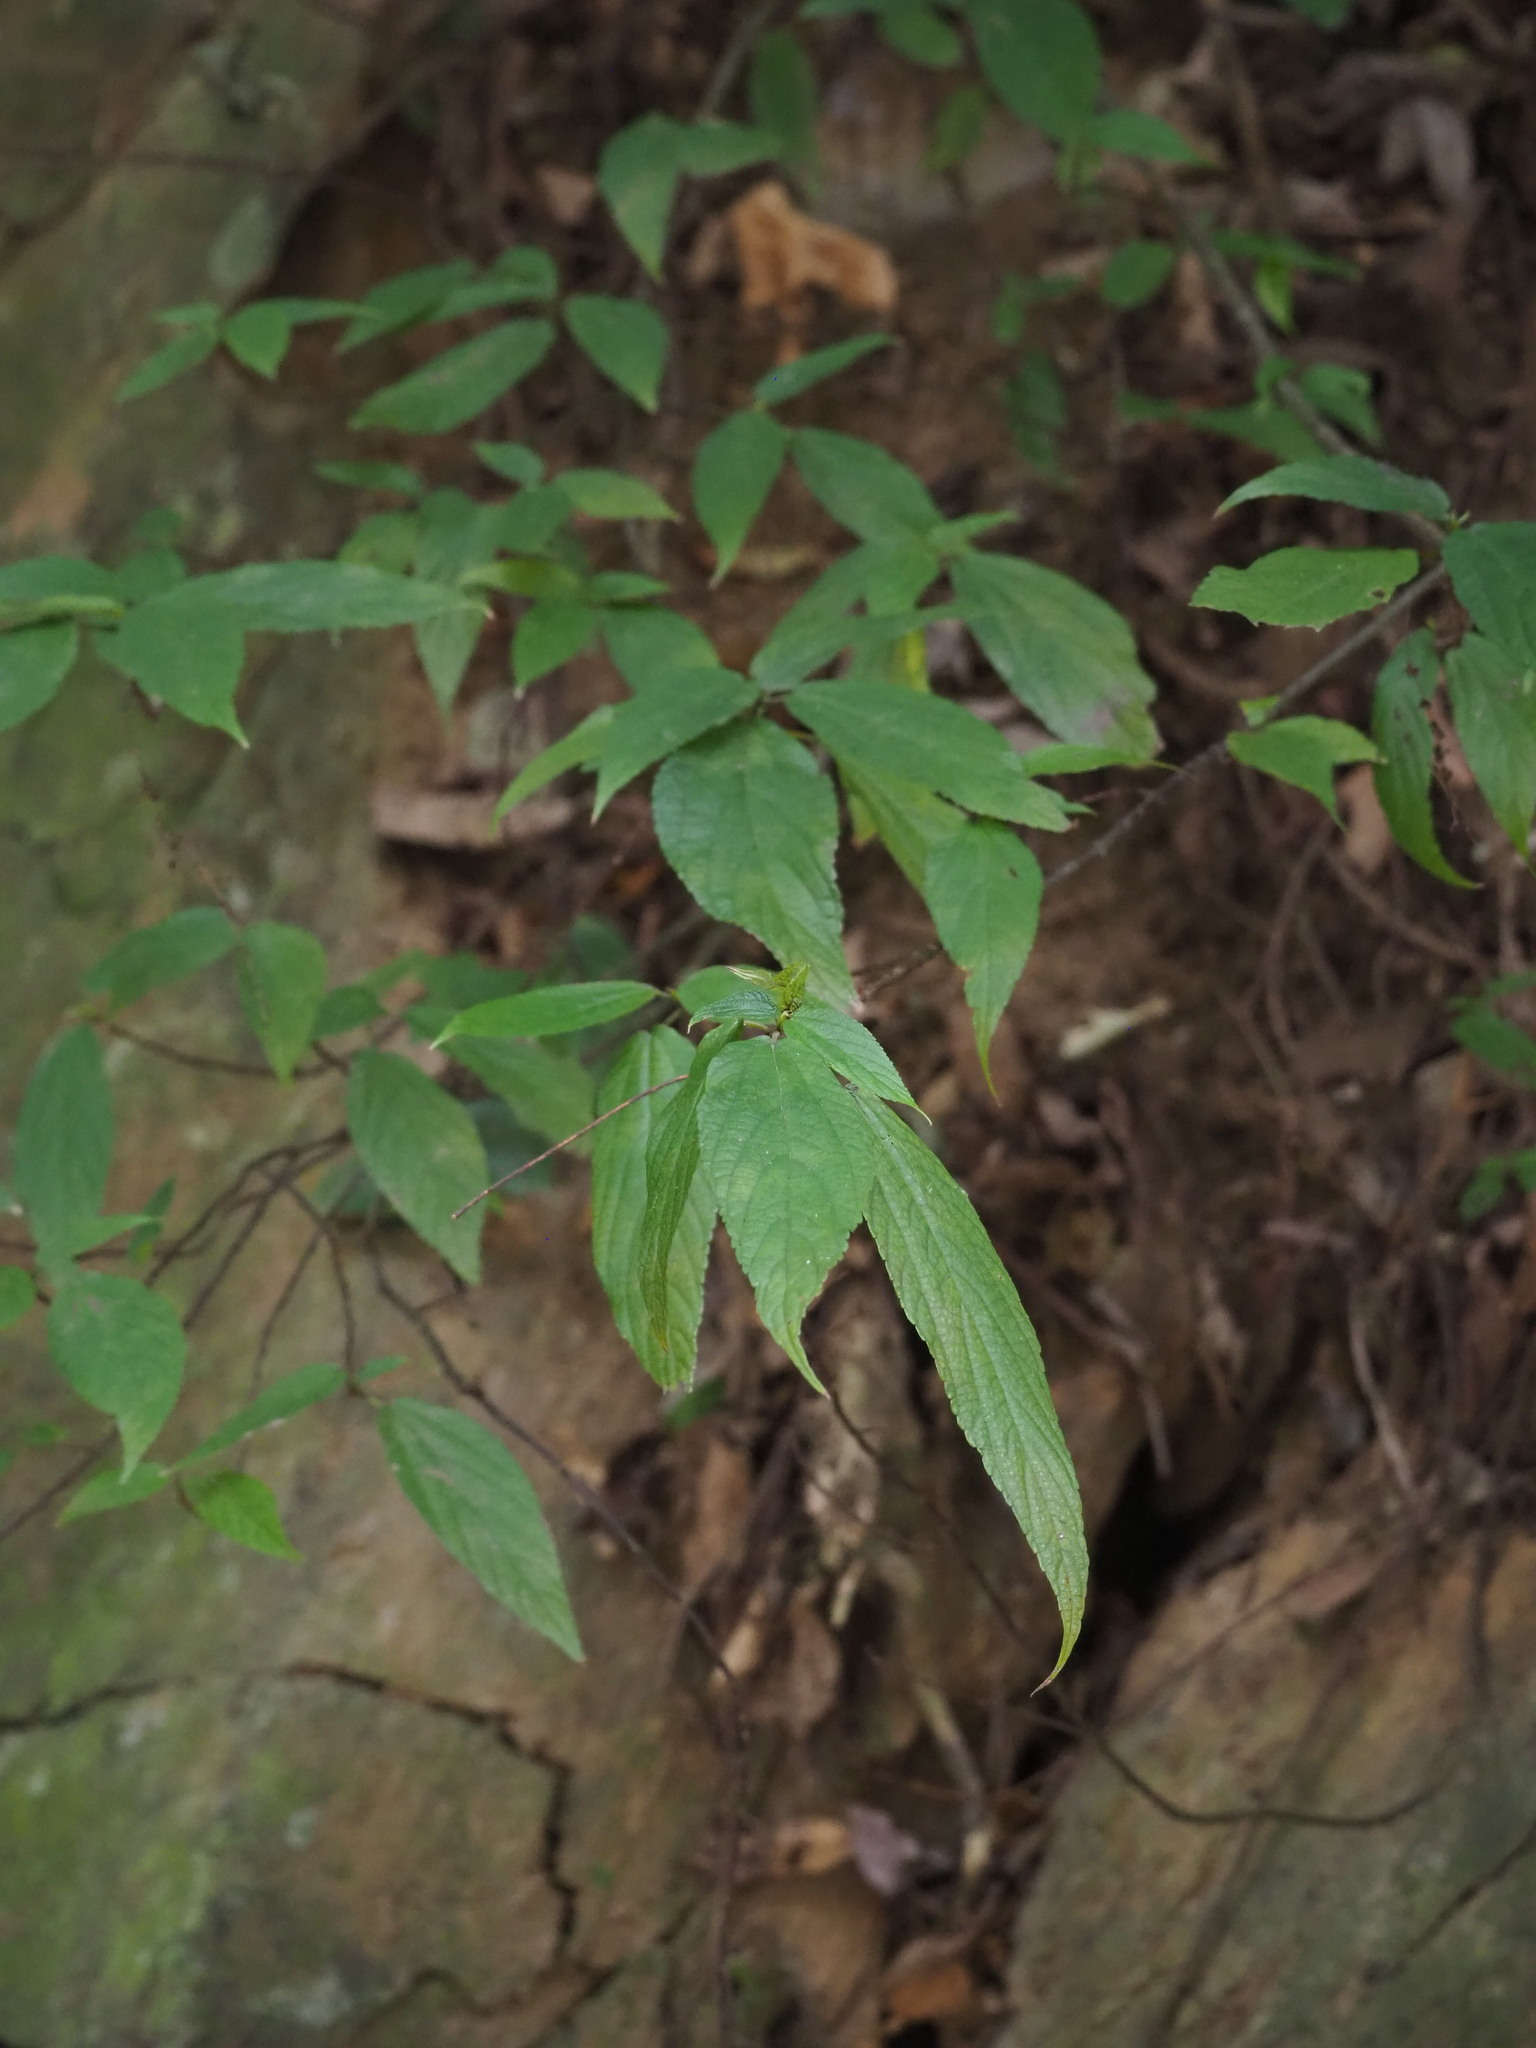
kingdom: Plantae
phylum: Tracheophyta
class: Magnoliopsida
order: Rosales
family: Urticaceae
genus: Boehmeria
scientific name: Boehmeria zollingeriana
